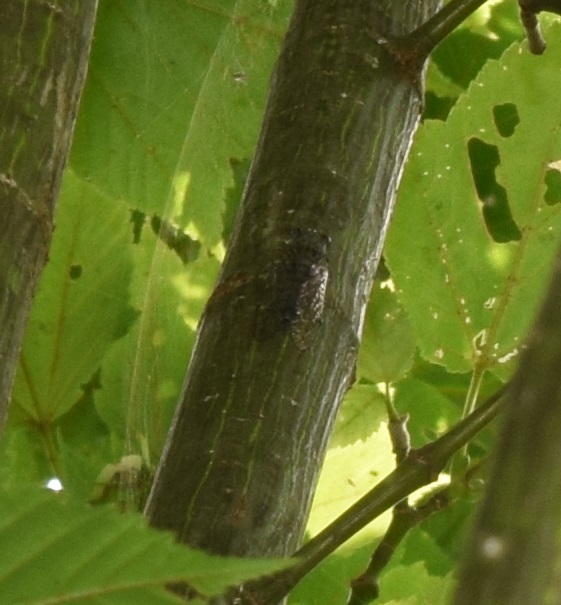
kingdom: Animalia
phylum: Arthropoda
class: Insecta
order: Hemiptera
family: Cicadidae
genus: Euterpnosia
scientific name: Euterpnosia chibensis
